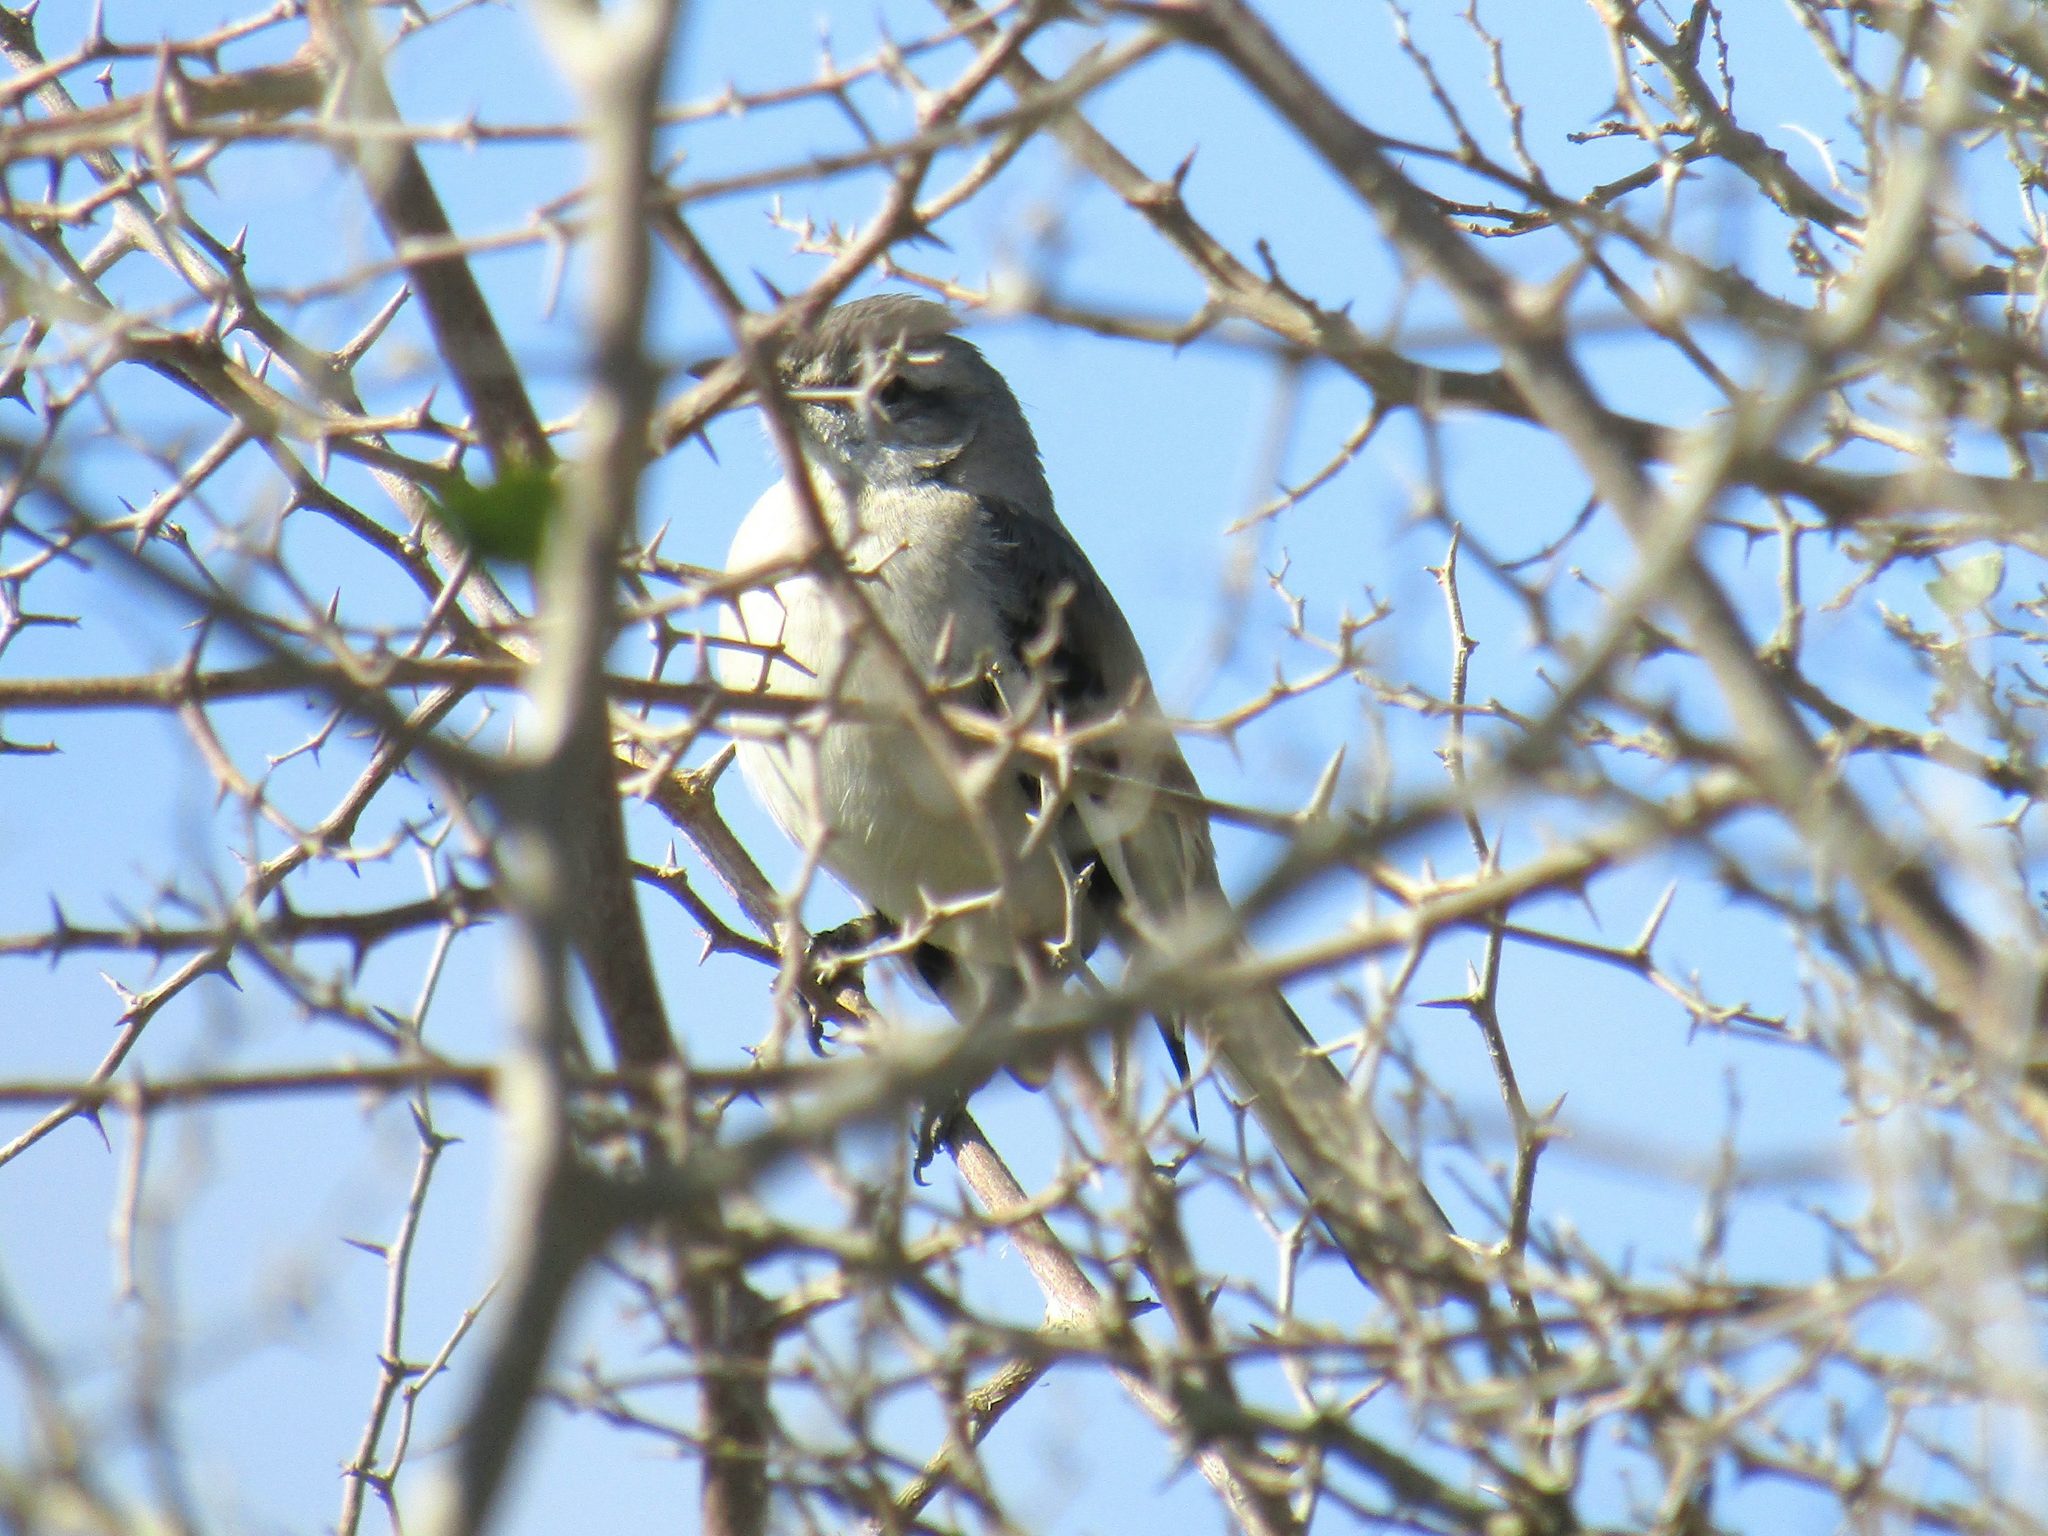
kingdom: Animalia
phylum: Chordata
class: Aves
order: Passeriformes
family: Mimidae
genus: Mimus
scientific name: Mimus triurus
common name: White-banded mockingbird
